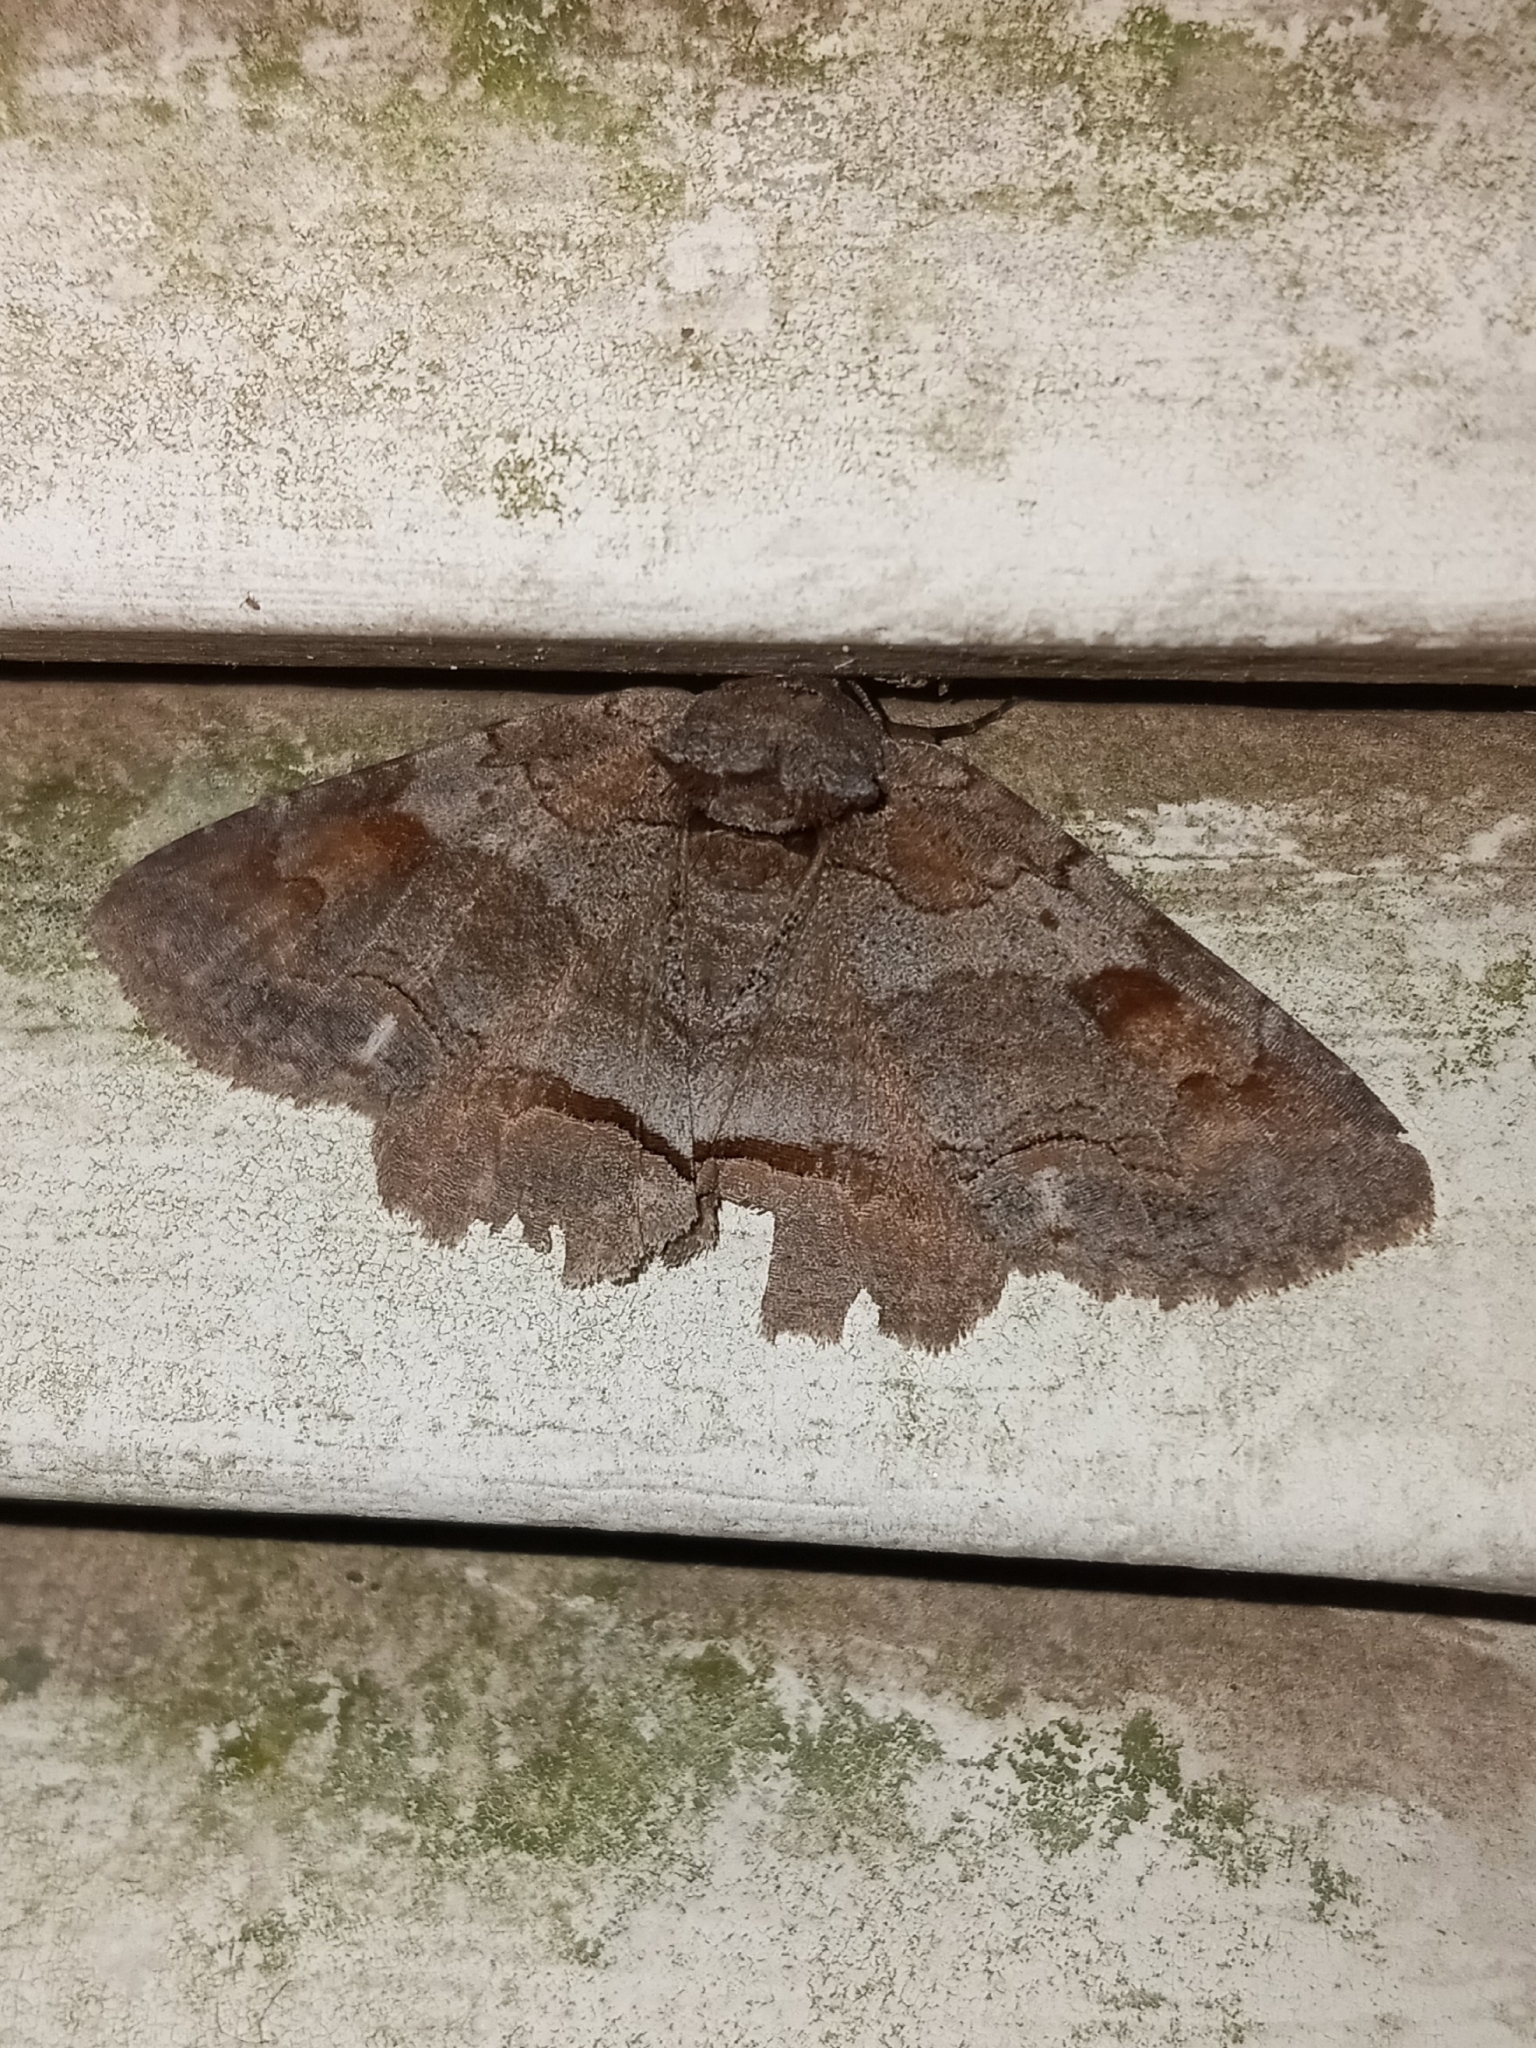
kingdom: Animalia
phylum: Arthropoda
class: Insecta
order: Lepidoptera
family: Erebidae
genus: Zale
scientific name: Zale obliqua
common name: Oblique zale moth
